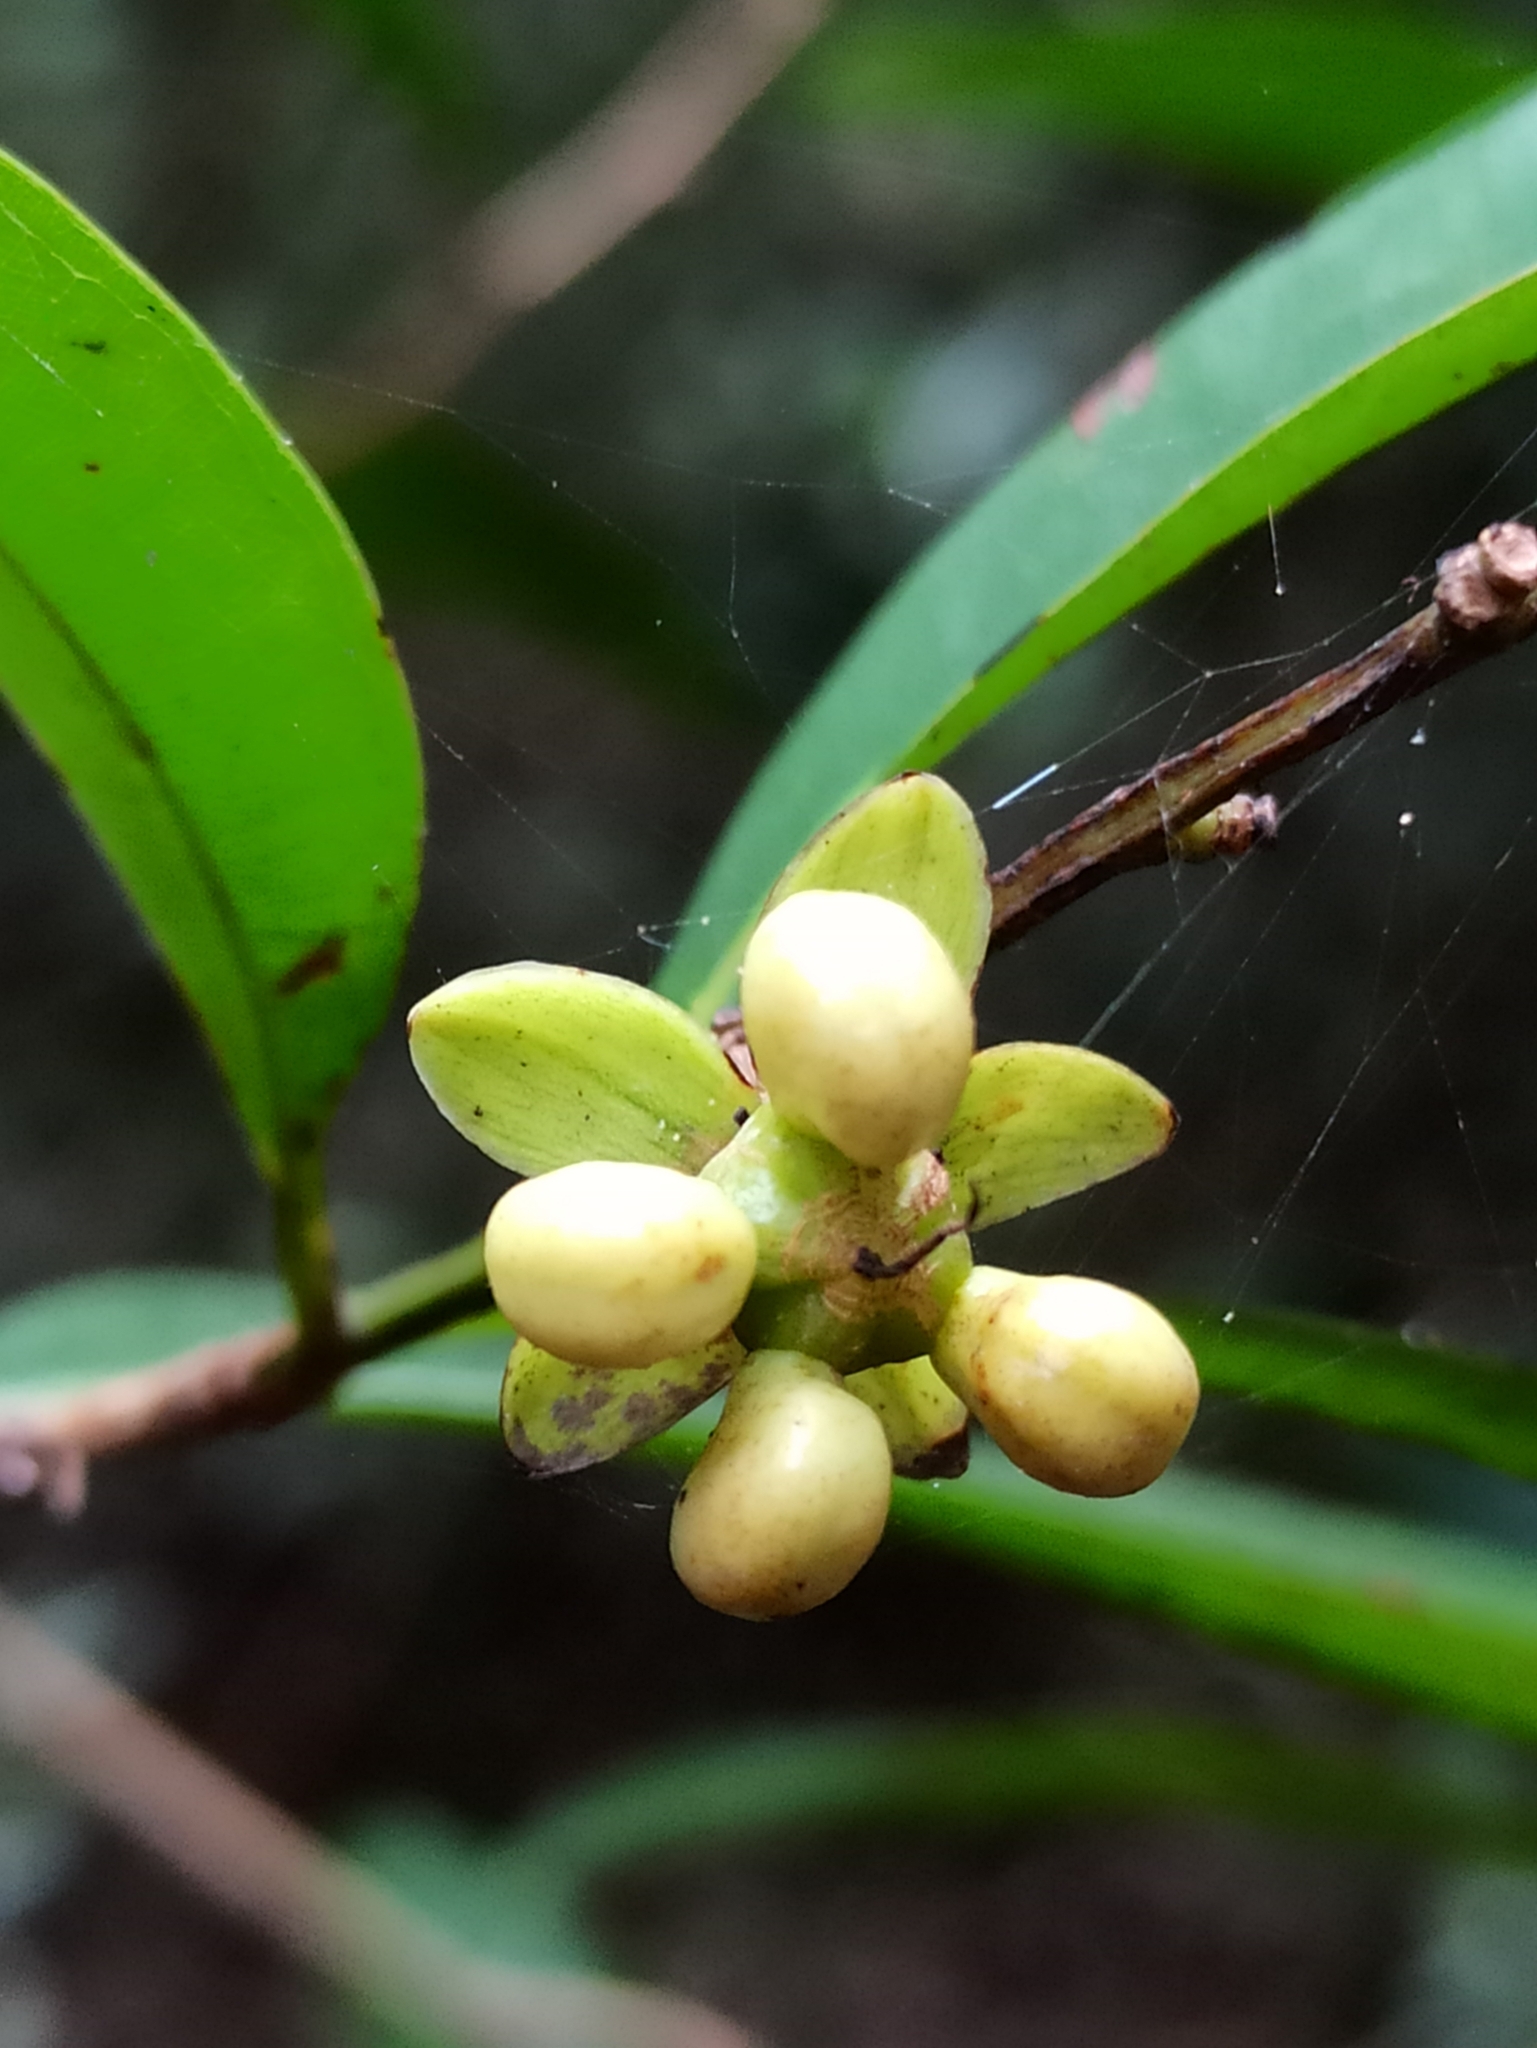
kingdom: Plantae
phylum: Tracheophyta
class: Magnoliopsida
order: Malpighiales
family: Ochnaceae
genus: Gomphia
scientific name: Gomphia serrata
